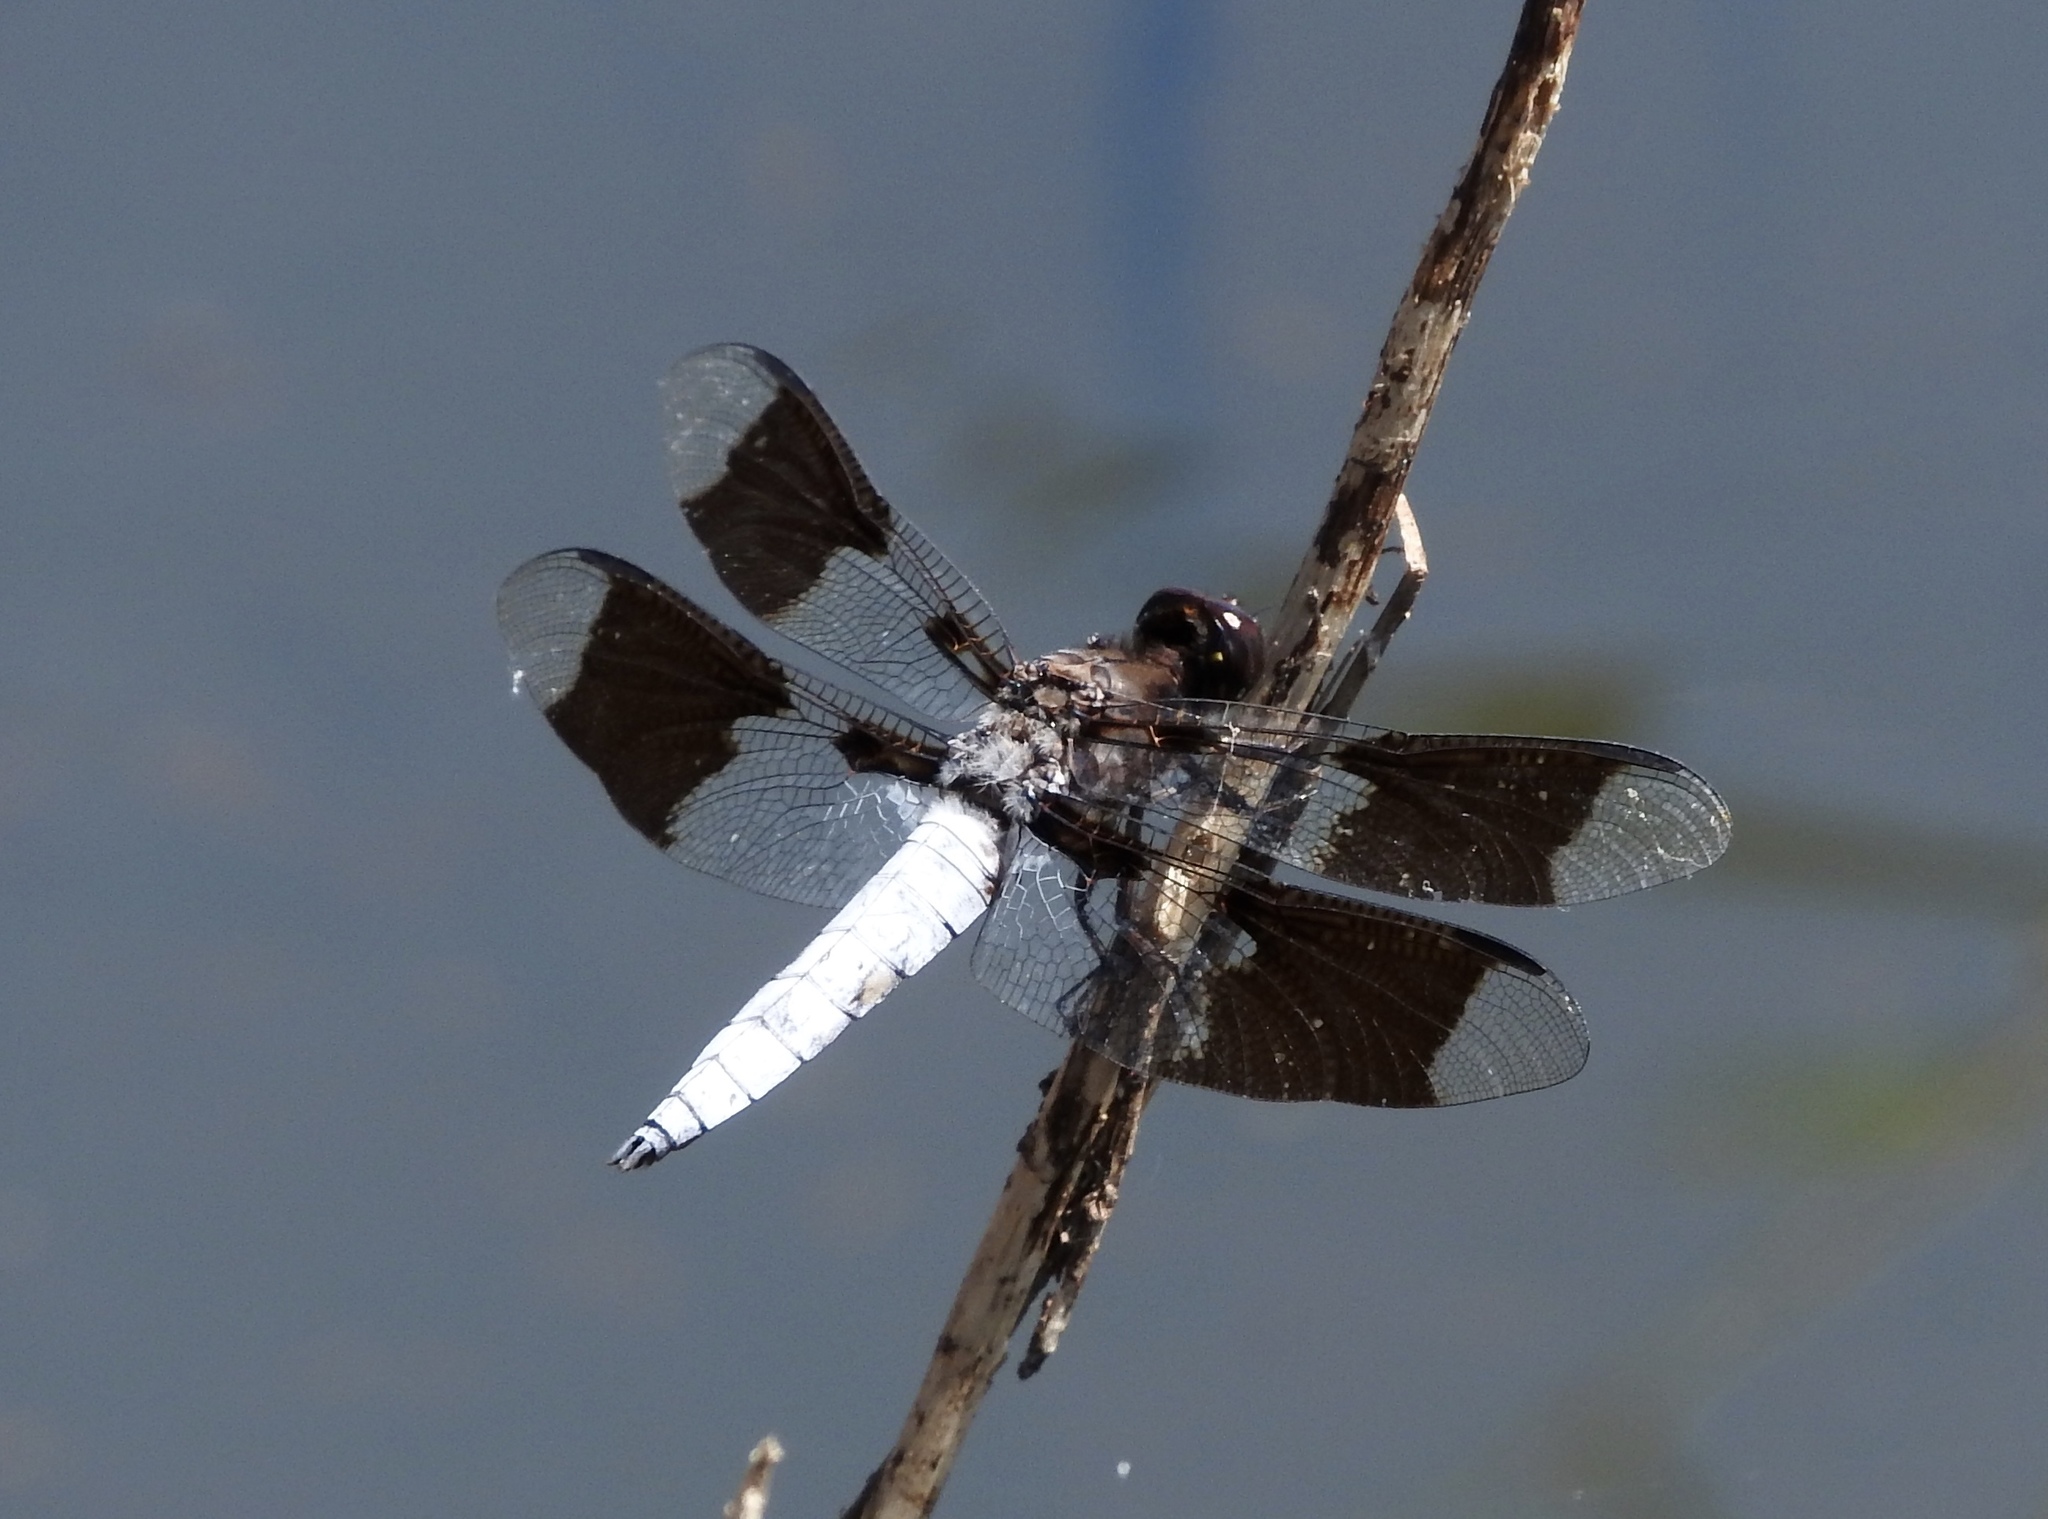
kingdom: Animalia
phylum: Arthropoda
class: Insecta
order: Odonata
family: Libellulidae
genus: Plathemis
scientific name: Plathemis lydia
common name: Common whitetail
